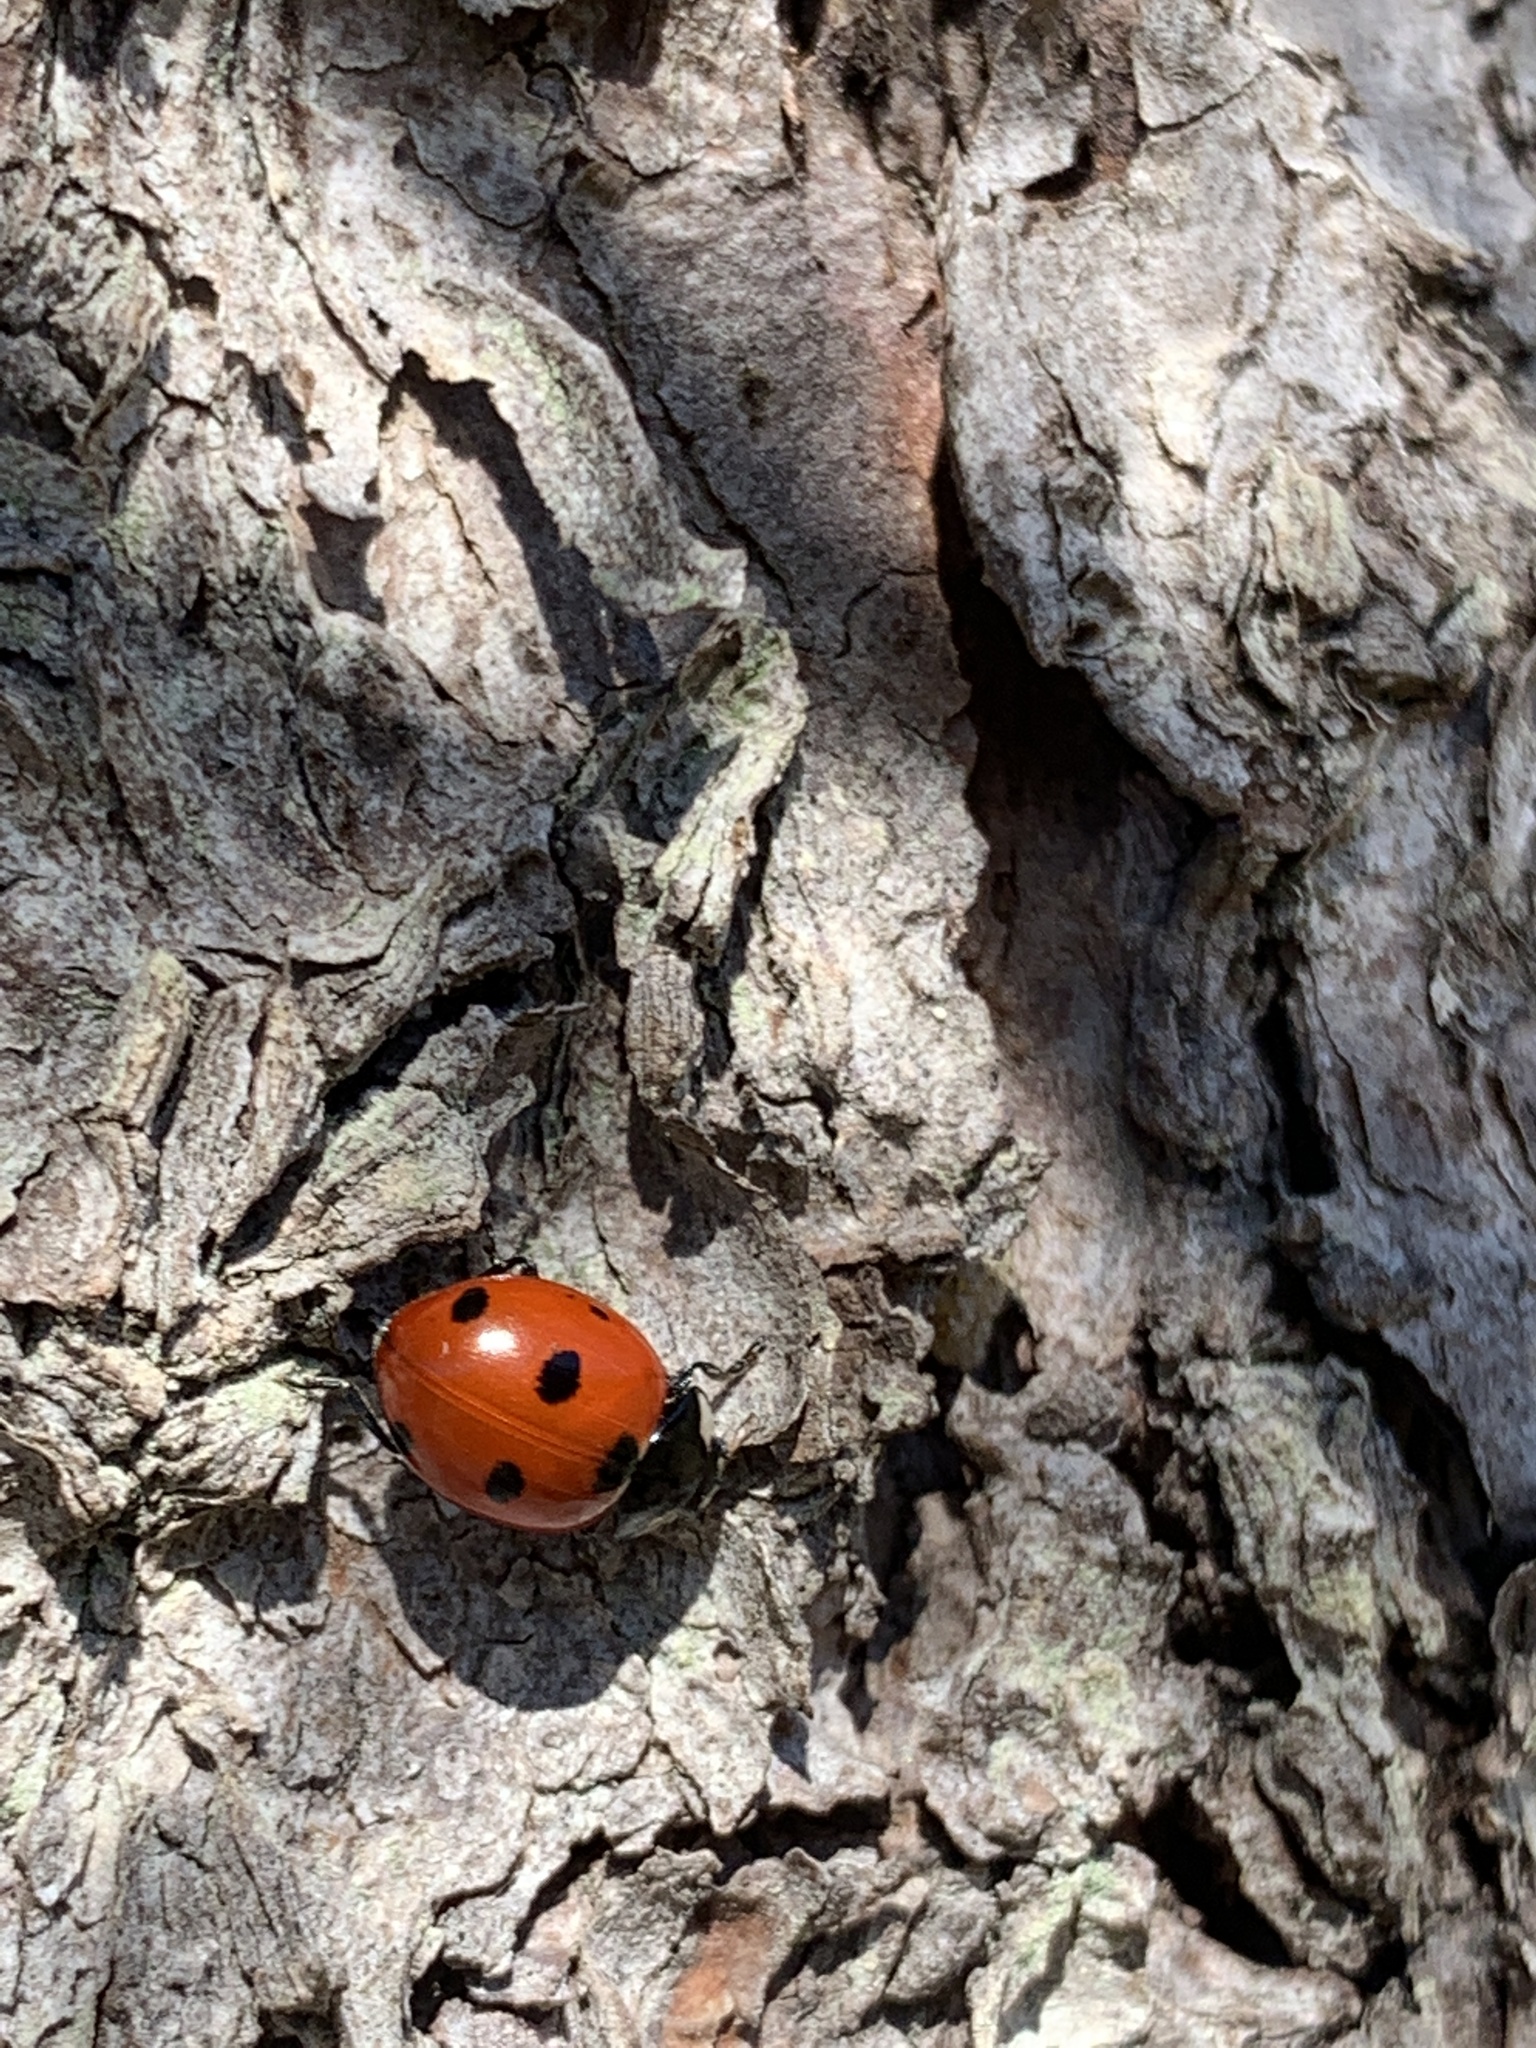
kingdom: Animalia
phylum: Arthropoda
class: Insecta
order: Coleoptera
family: Coccinellidae
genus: Coccinella
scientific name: Coccinella septempunctata
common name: Sevenspotted lady beetle
